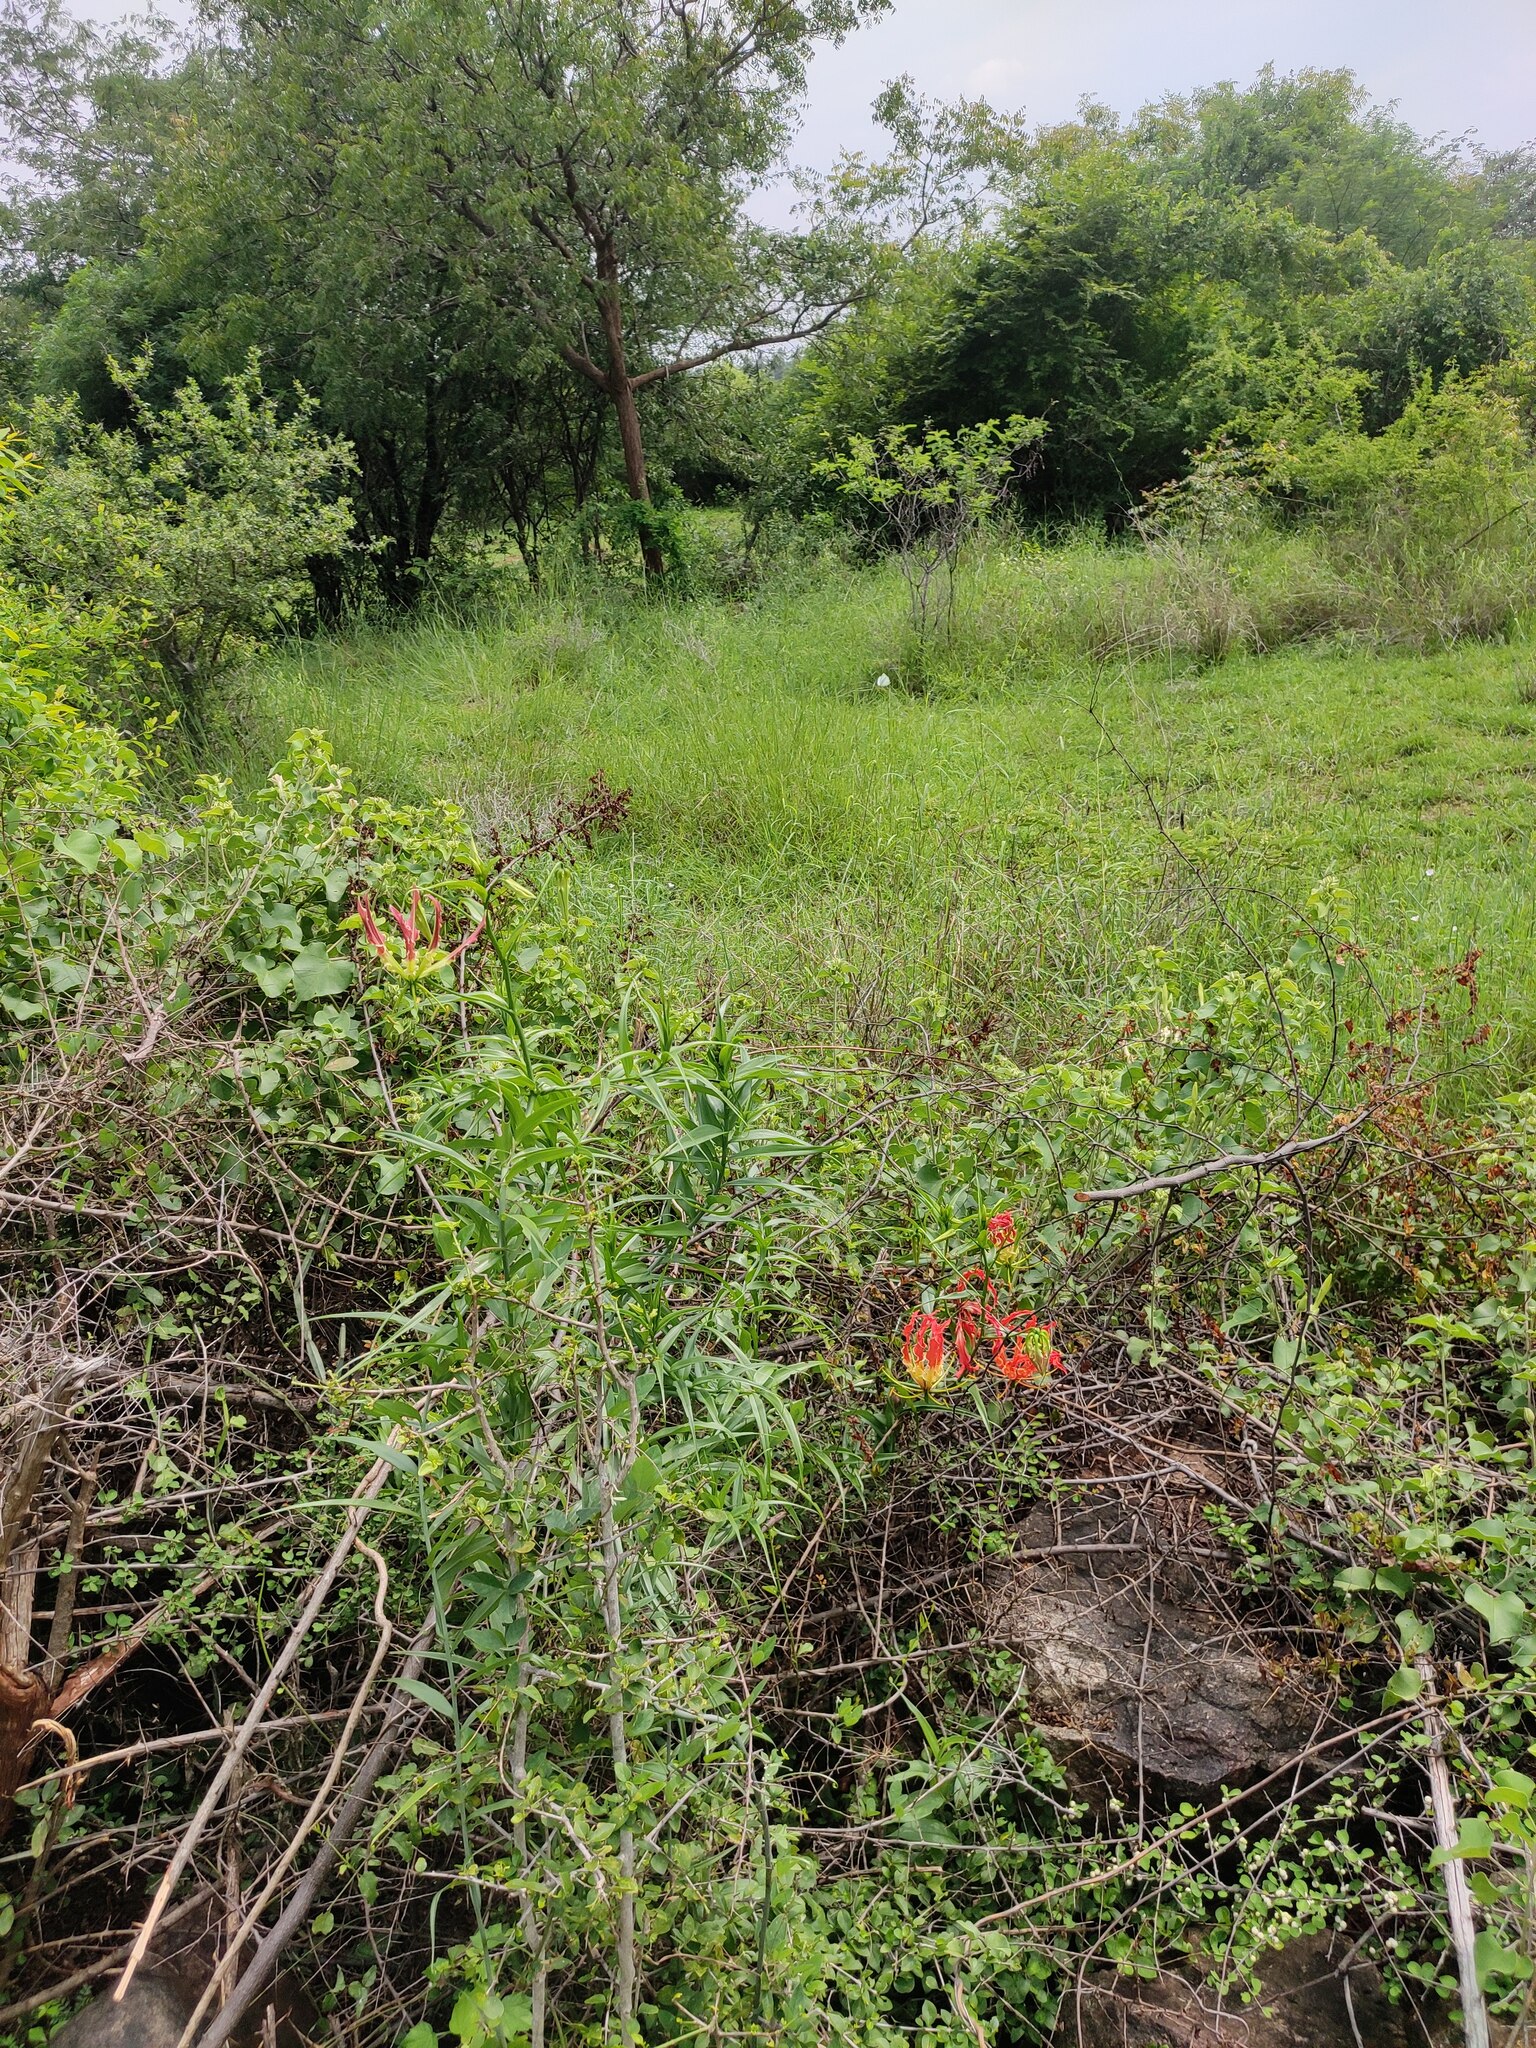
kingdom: Plantae
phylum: Tracheophyta
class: Liliopsida
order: Liliales
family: Colchicaceae
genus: Gloriosa
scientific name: Gloriosa superba
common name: Flame lily
